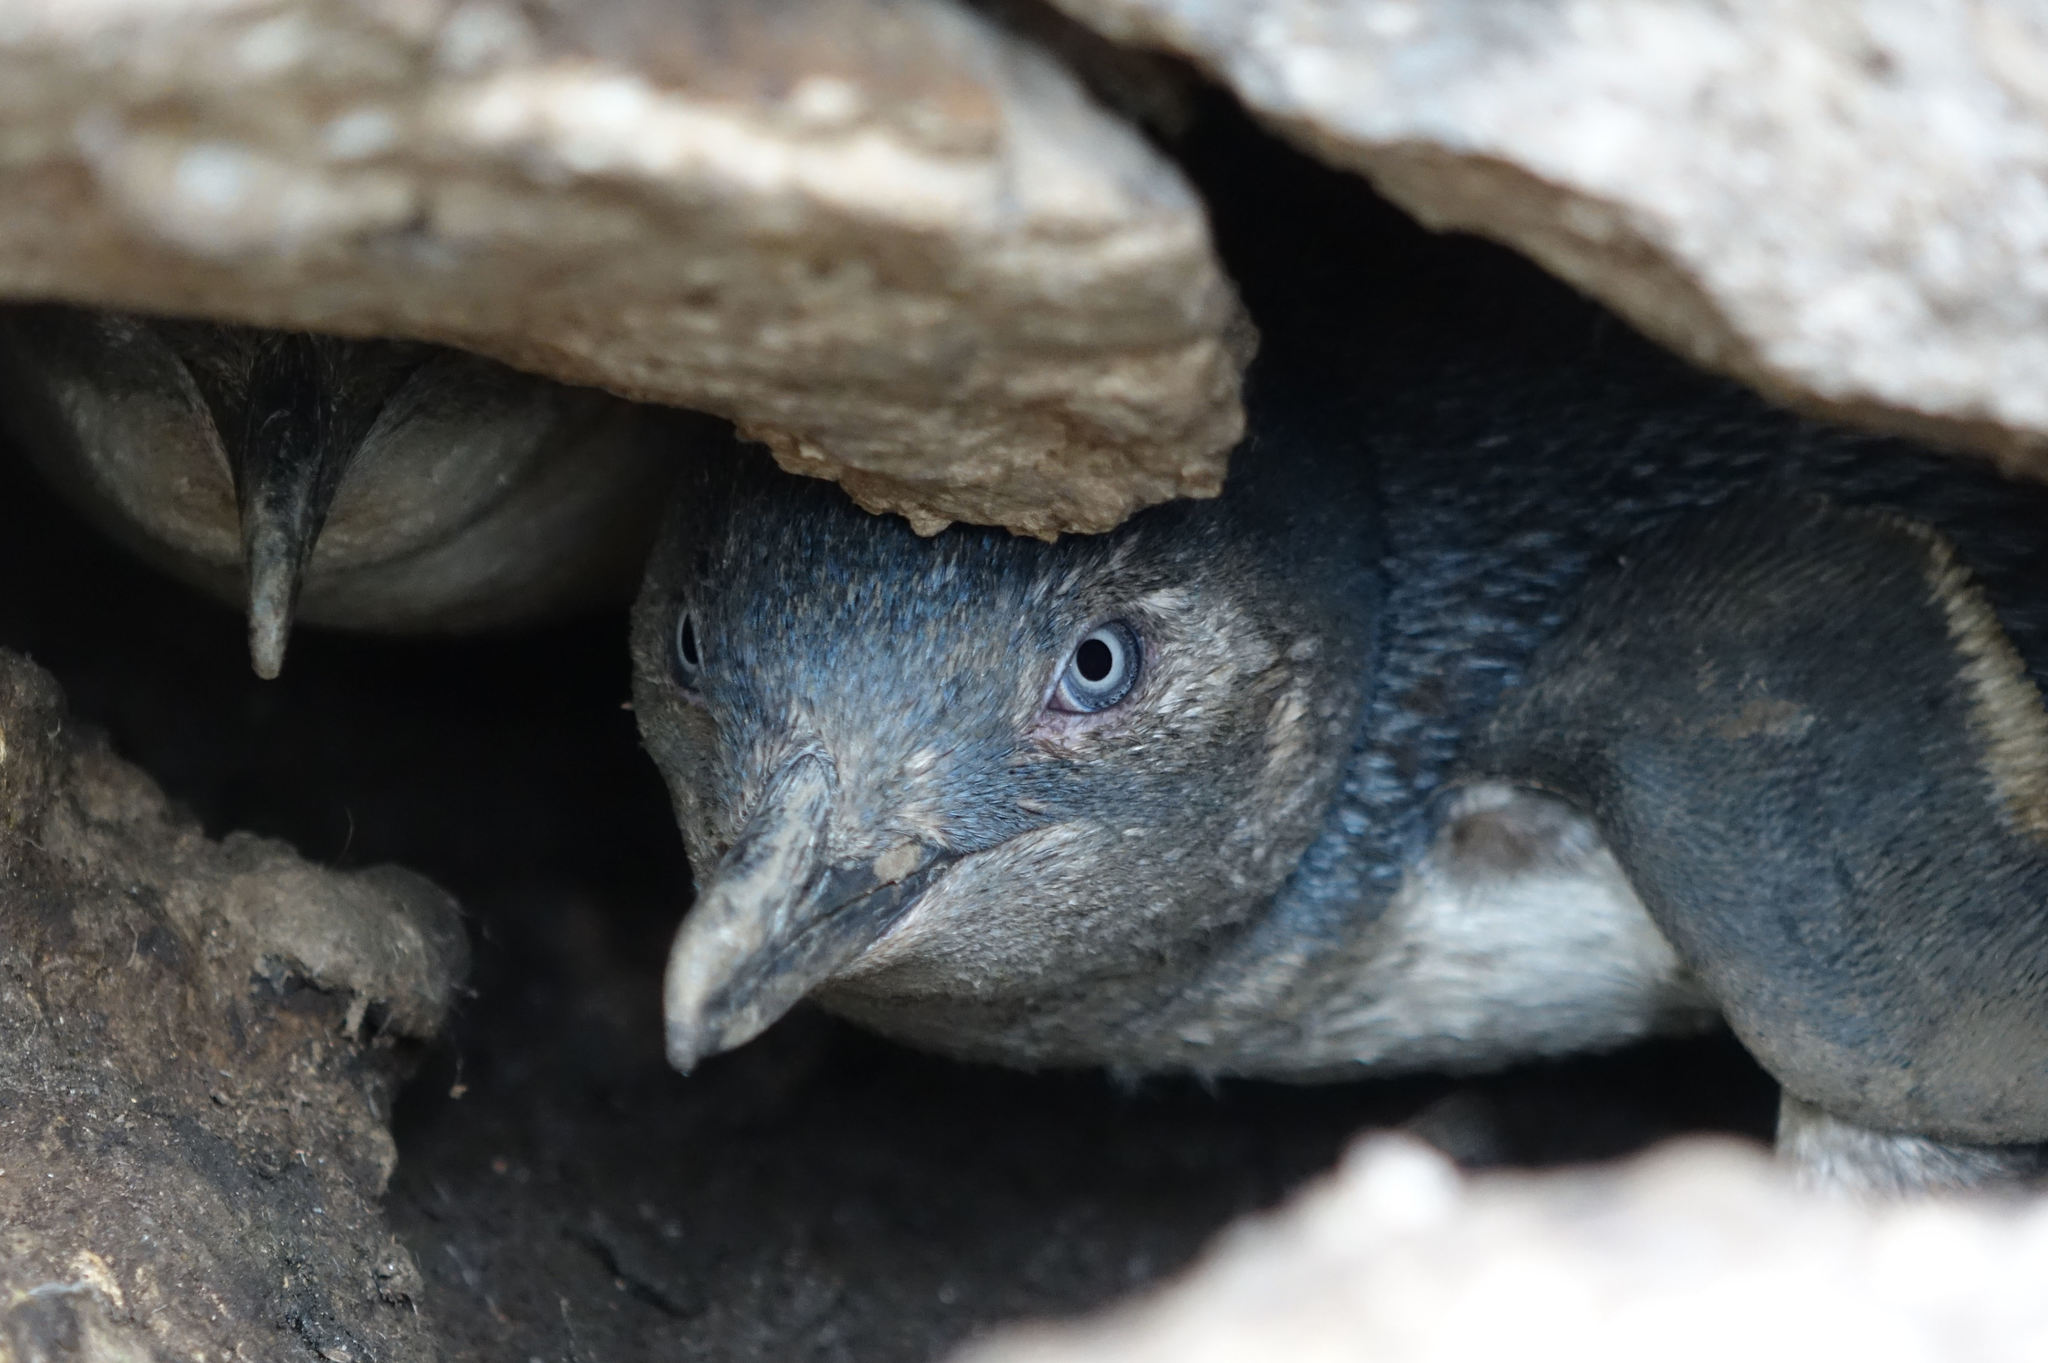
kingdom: Animalia
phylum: Chordata
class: Aves
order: Sphenisciformes
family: Spheniscidae
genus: Eudyptula
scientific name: Eudyptula minor
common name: Little penguin
